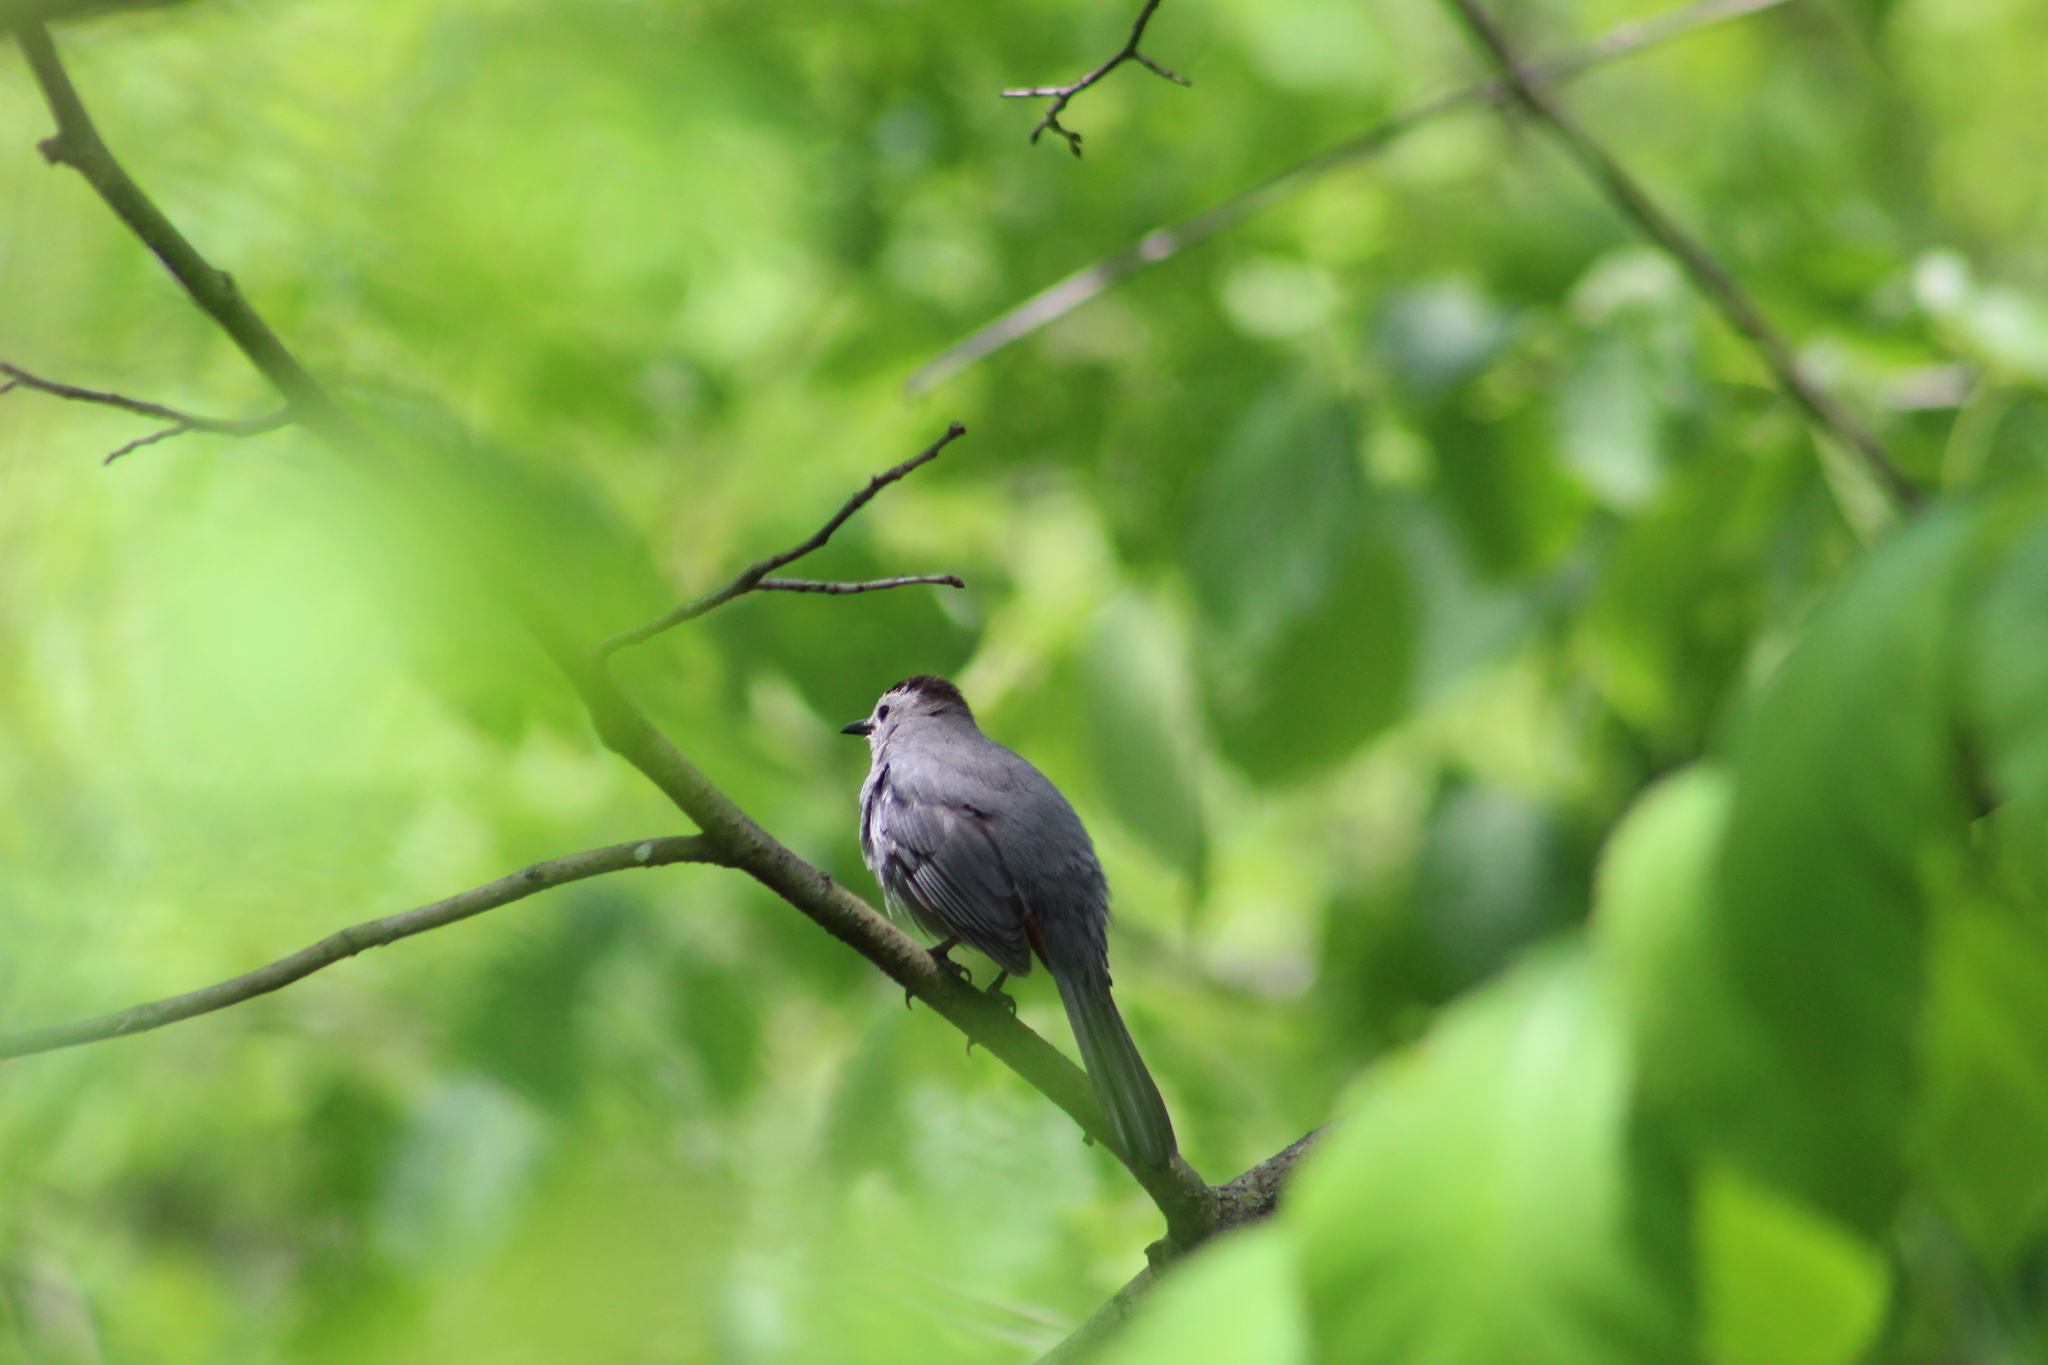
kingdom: Animalia
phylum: Chordata
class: Aves
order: Passeriformes
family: Mimidae
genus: Dumetella
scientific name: Dumetella carolinensis
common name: Gray catbird
